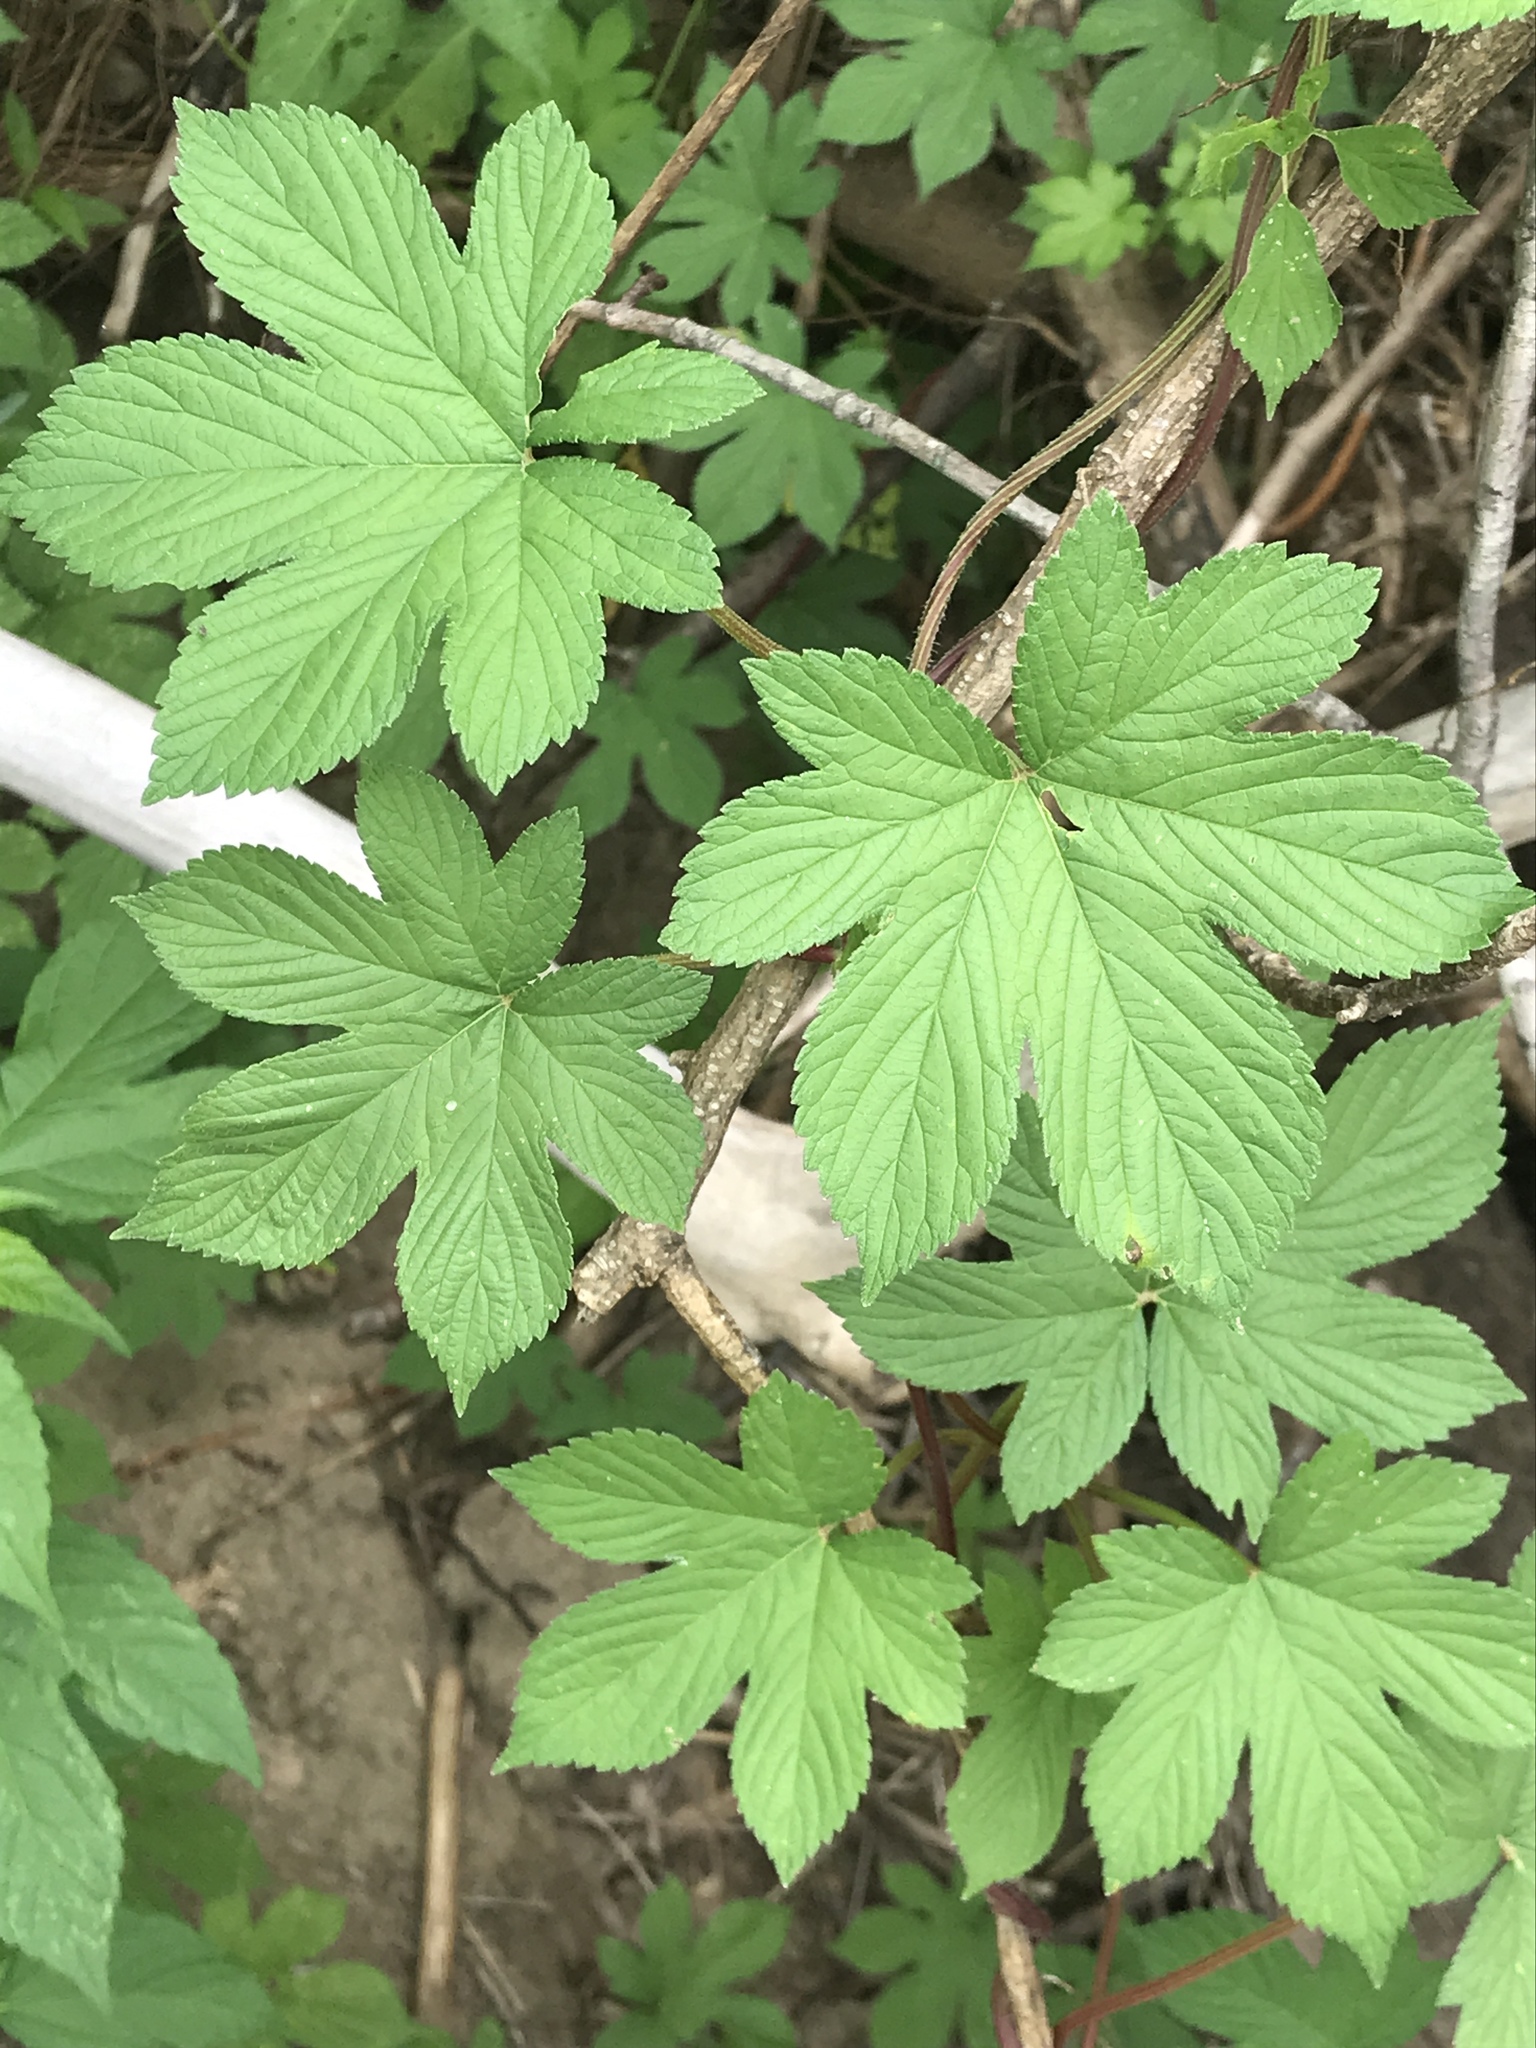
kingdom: Plantae
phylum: Tracheophyta
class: Magnoliopsida
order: Rosales
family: Cannabaceae
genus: Humulus
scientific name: Humulus scandens
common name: Japanese hop
